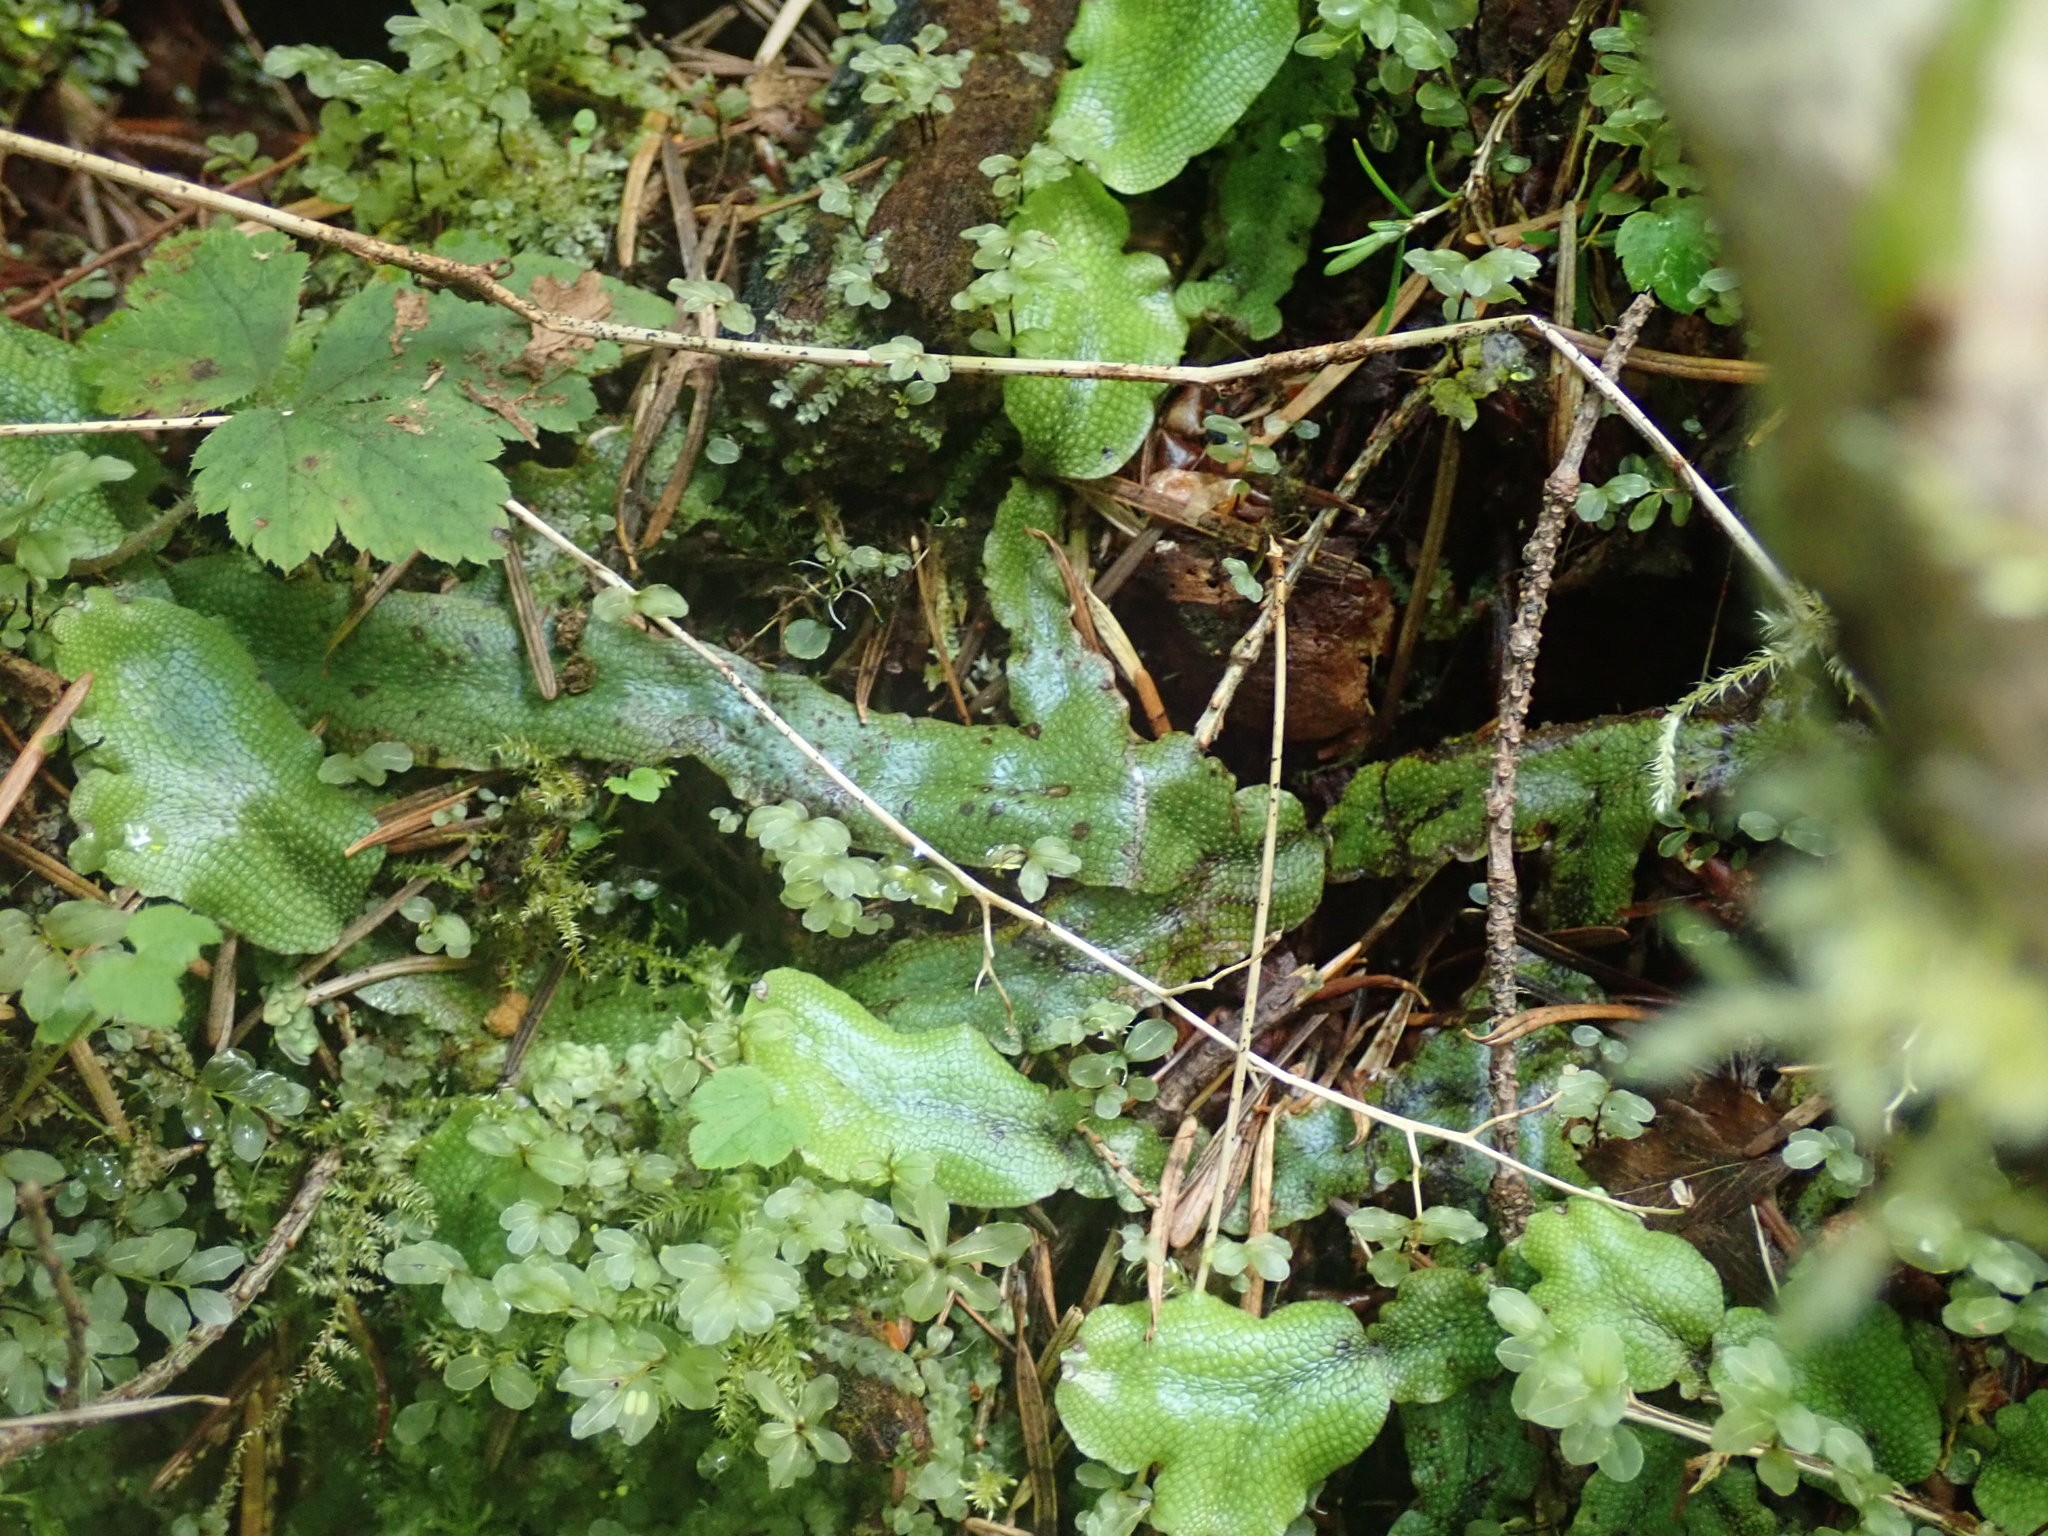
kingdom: Plantae
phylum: Marchantiophyta
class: Marchantiopsida
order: Marchantiales
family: Conocephalaceae
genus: Conocephalum
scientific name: Conocephalum salebrosum
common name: Cat-tongue liverwort
